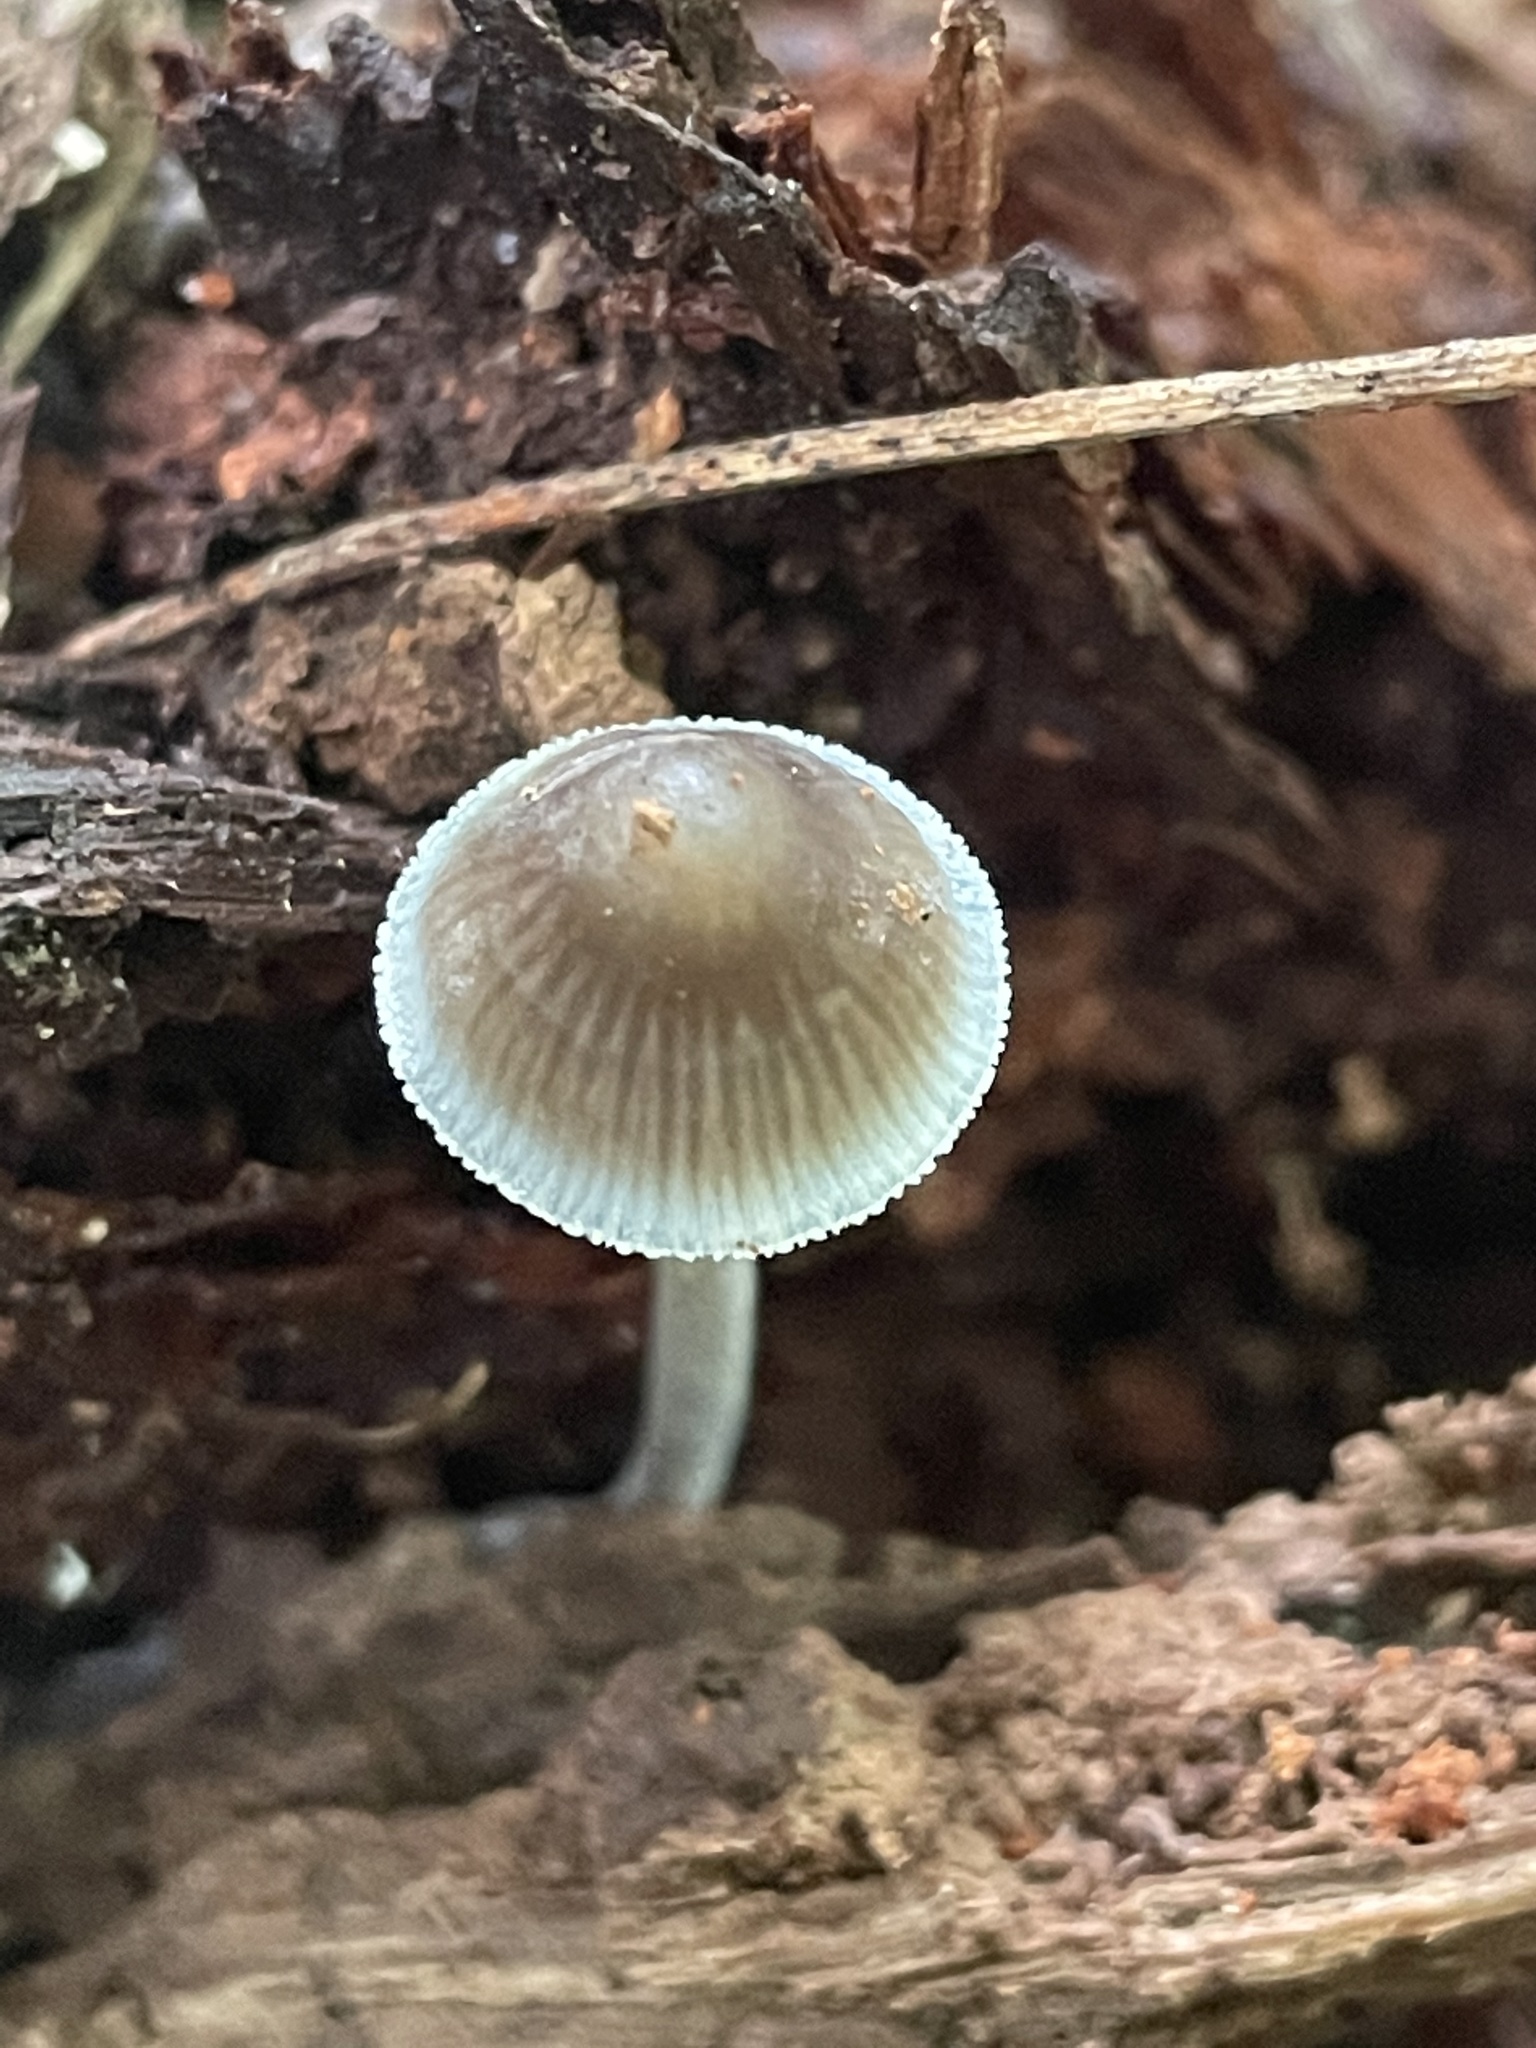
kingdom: Fungi
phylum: Basidiomycota
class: Agaricomycetes
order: Agaricales
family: Mycenaceae
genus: Mycena
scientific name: Mycena subcaerulea
